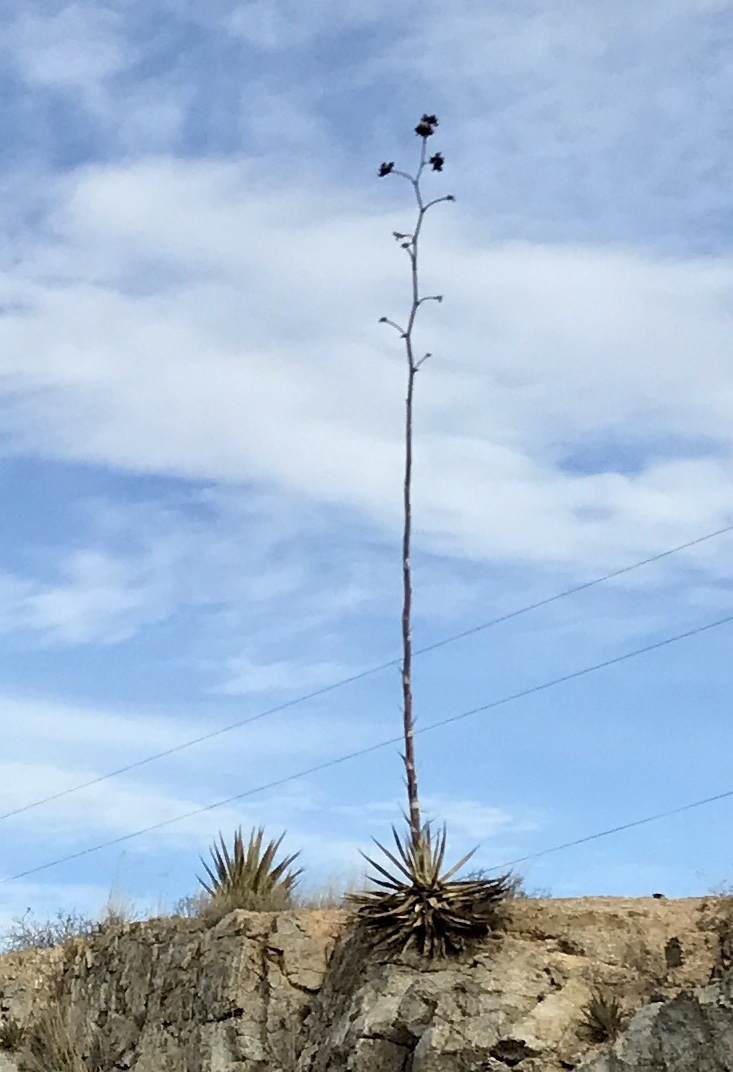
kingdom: Plantae
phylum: Tracheophyta
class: Liliopsida
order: Asparagales
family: Asparagaceae
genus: Agave
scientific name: Agave palmeri
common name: Palmer agave
